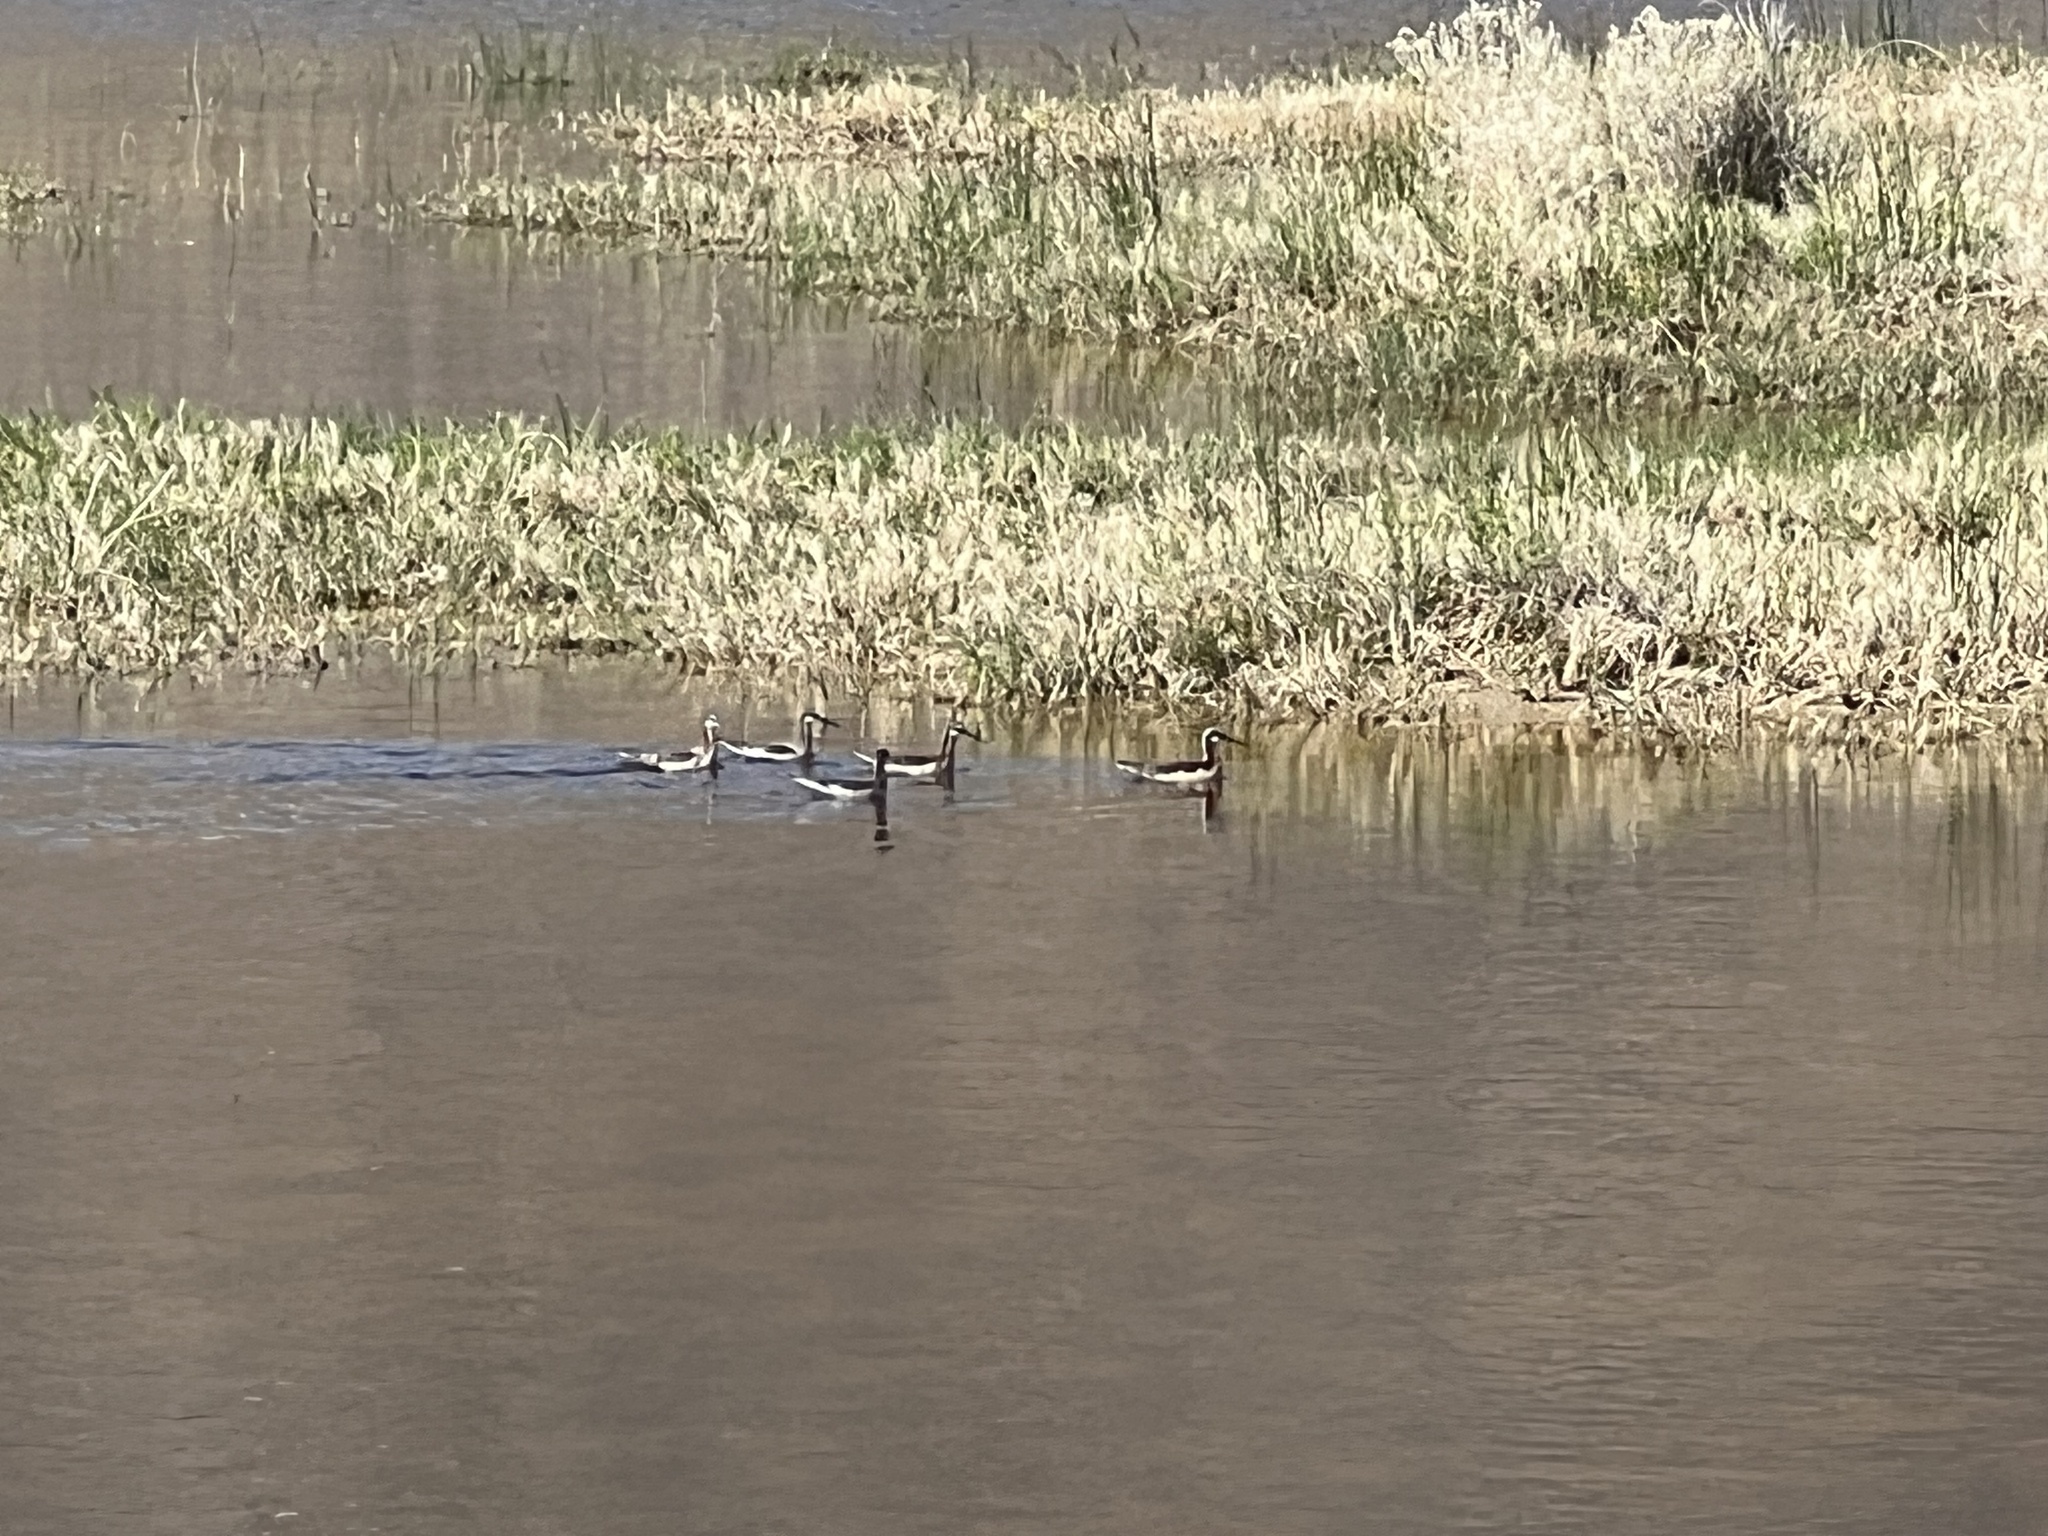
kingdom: Animalia
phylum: Chordata
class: Aves
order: Charadriiformes
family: Scolopacidae
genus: Phalaropus
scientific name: Phalaropus tricolor
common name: Wilson's phalarope
